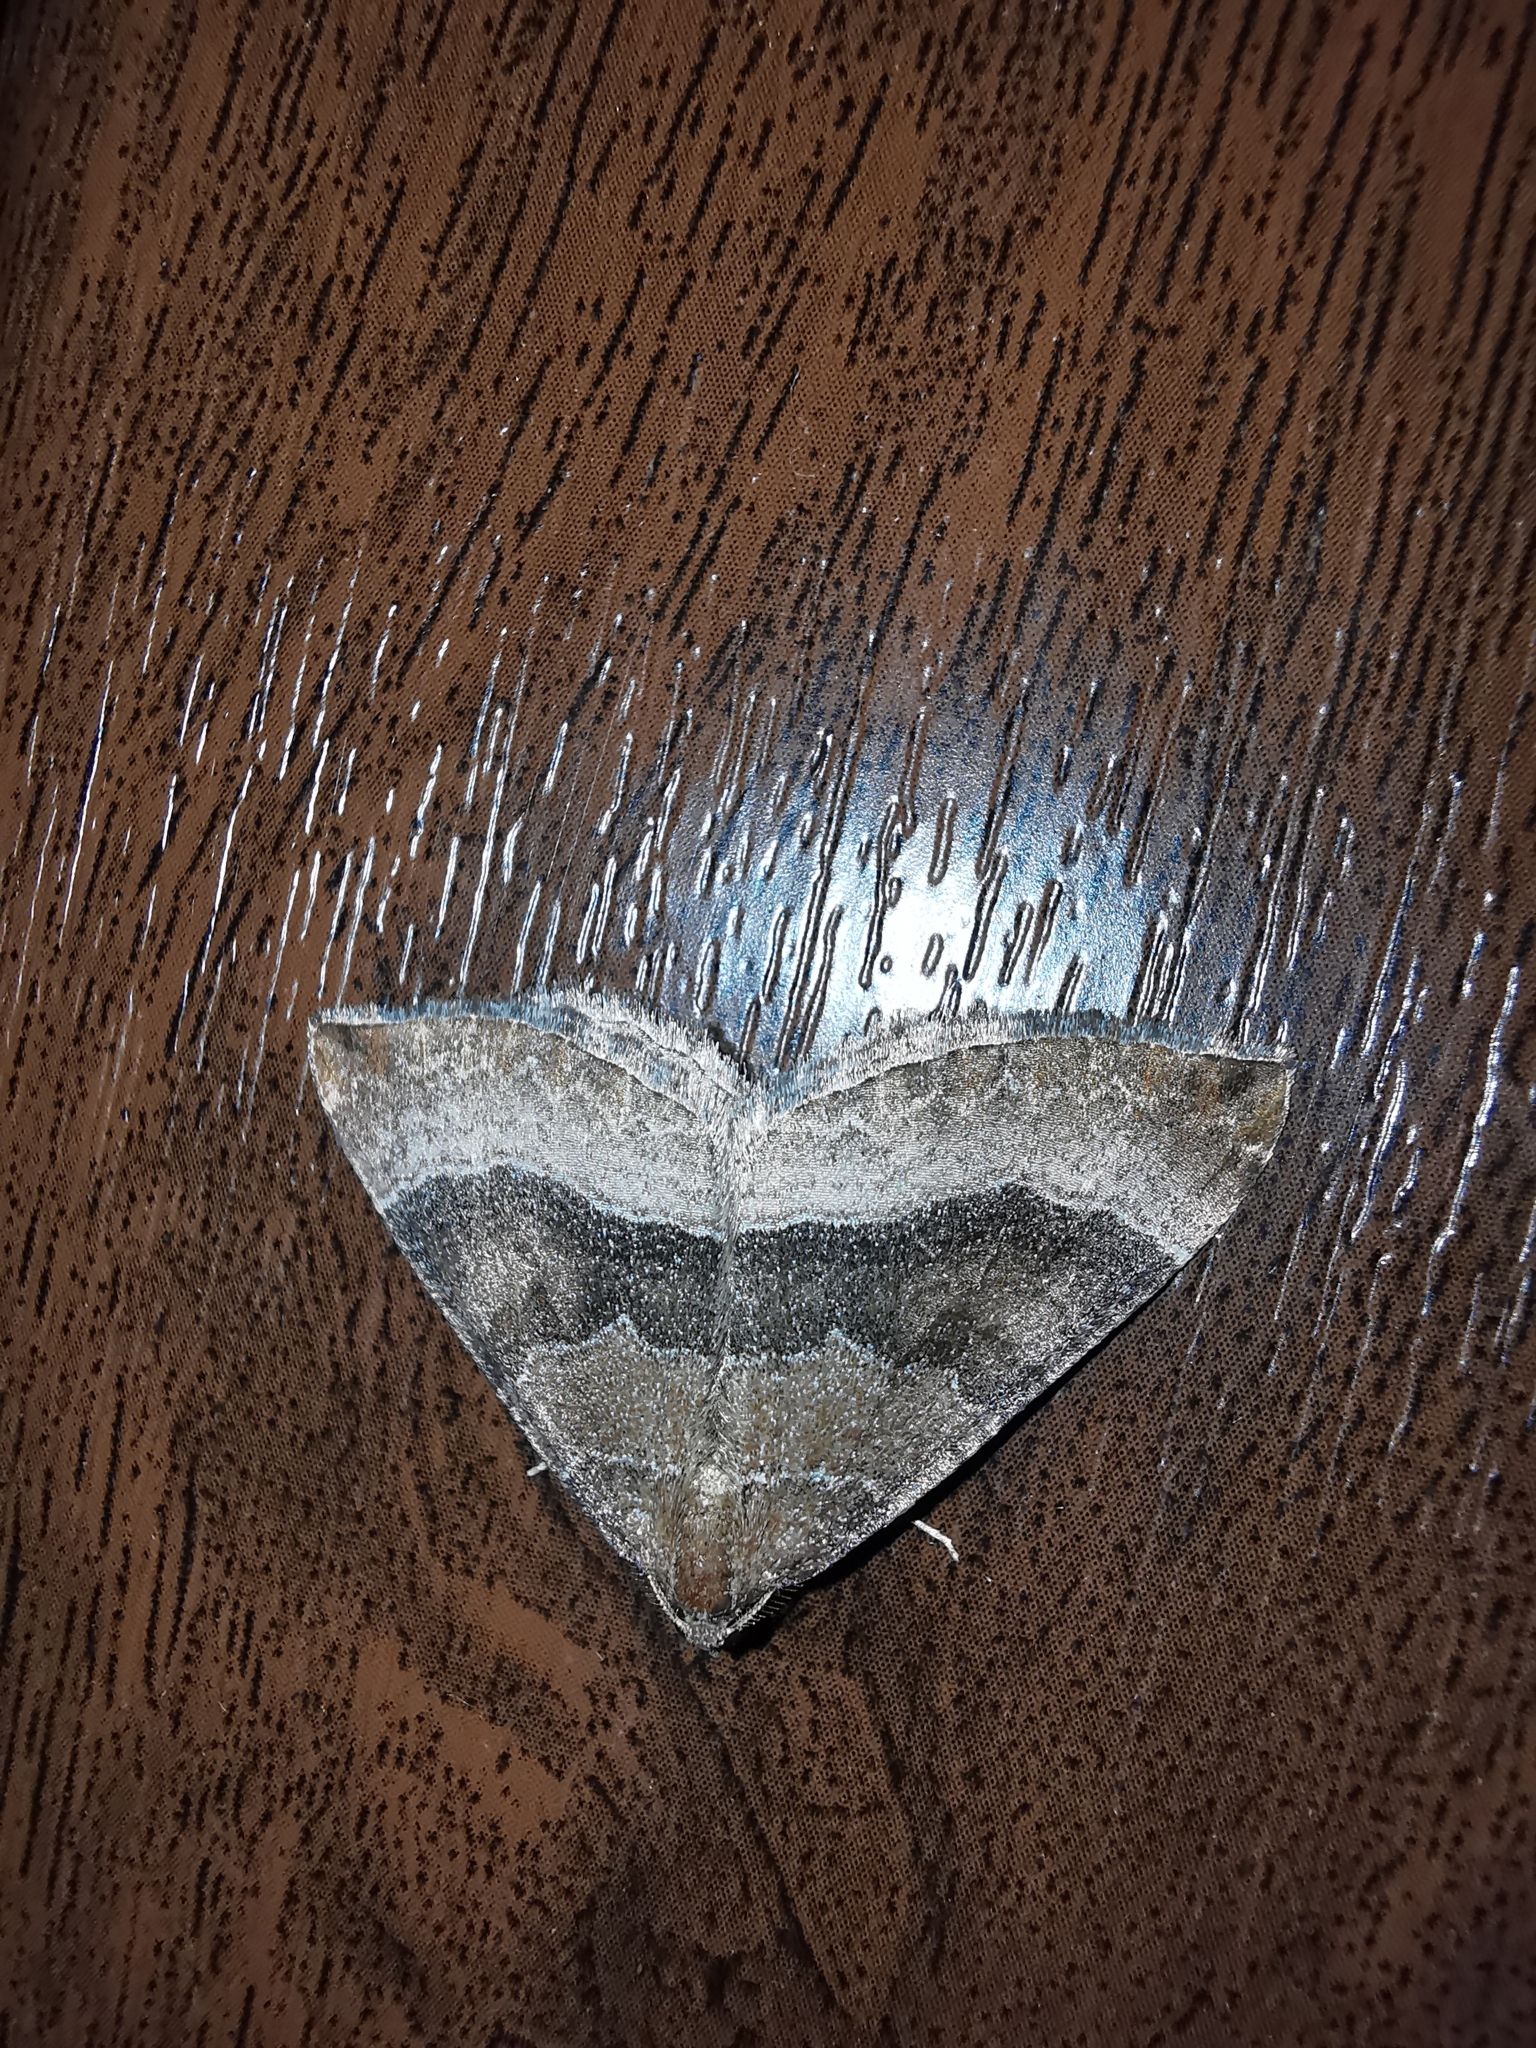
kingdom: Animalia
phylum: Arthropoda
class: Insecta
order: Lepidoptera
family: Geometridae
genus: Larentia
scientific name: Larentia clavaria
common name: Mallow
